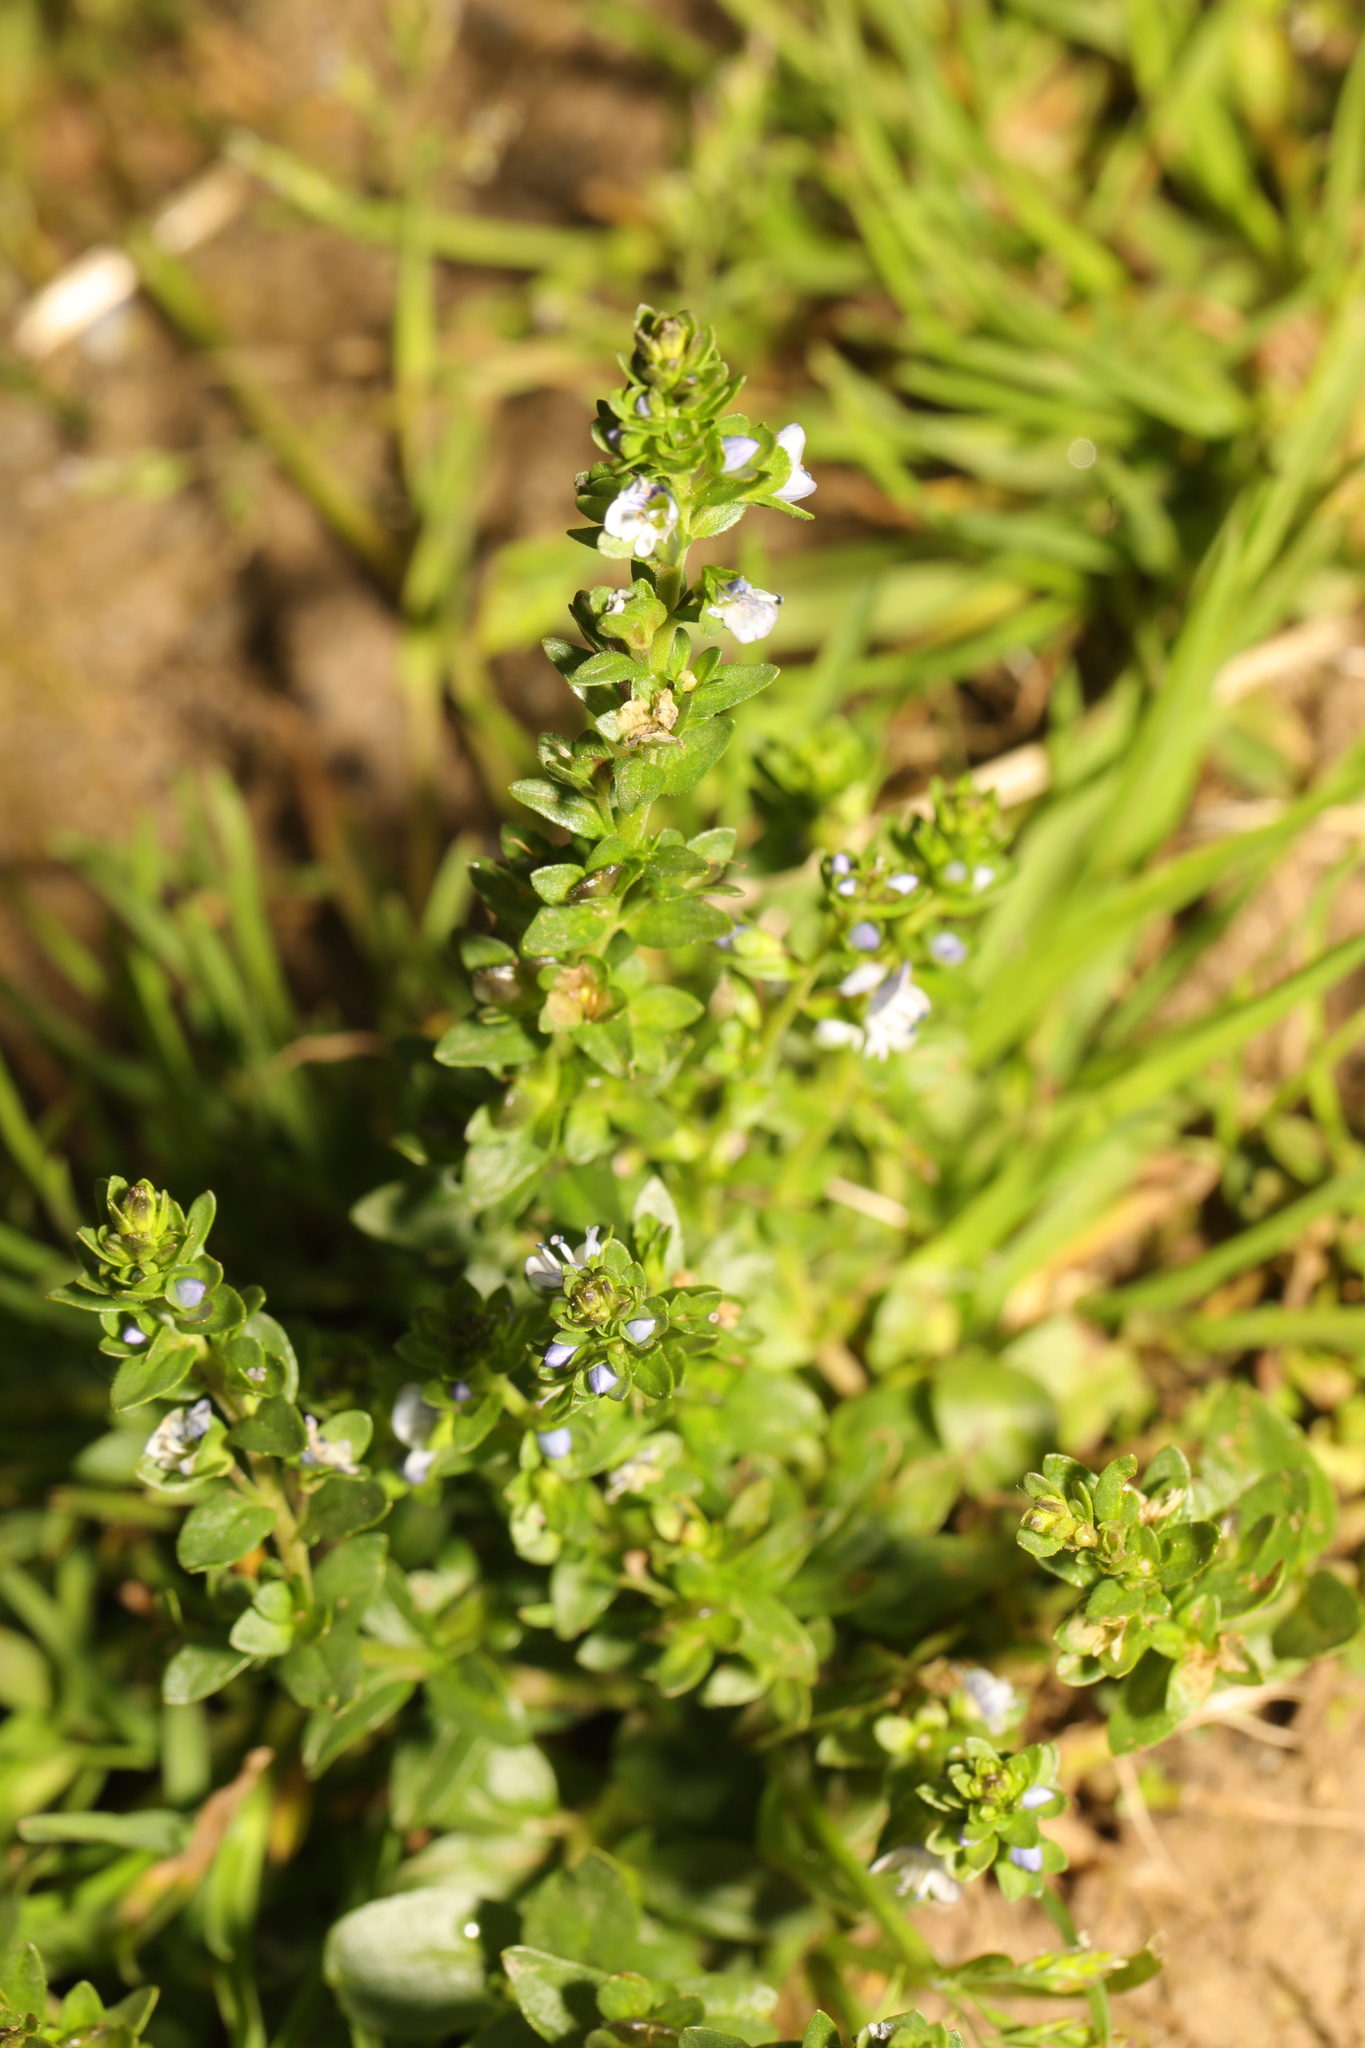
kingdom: Plantae
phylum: Tracheophyta
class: Magnoliopsida
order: Lamiales
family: Plantaginaceae
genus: Veronica
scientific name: Veronica serpyllifolia
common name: Thyme-leaved speedwell
